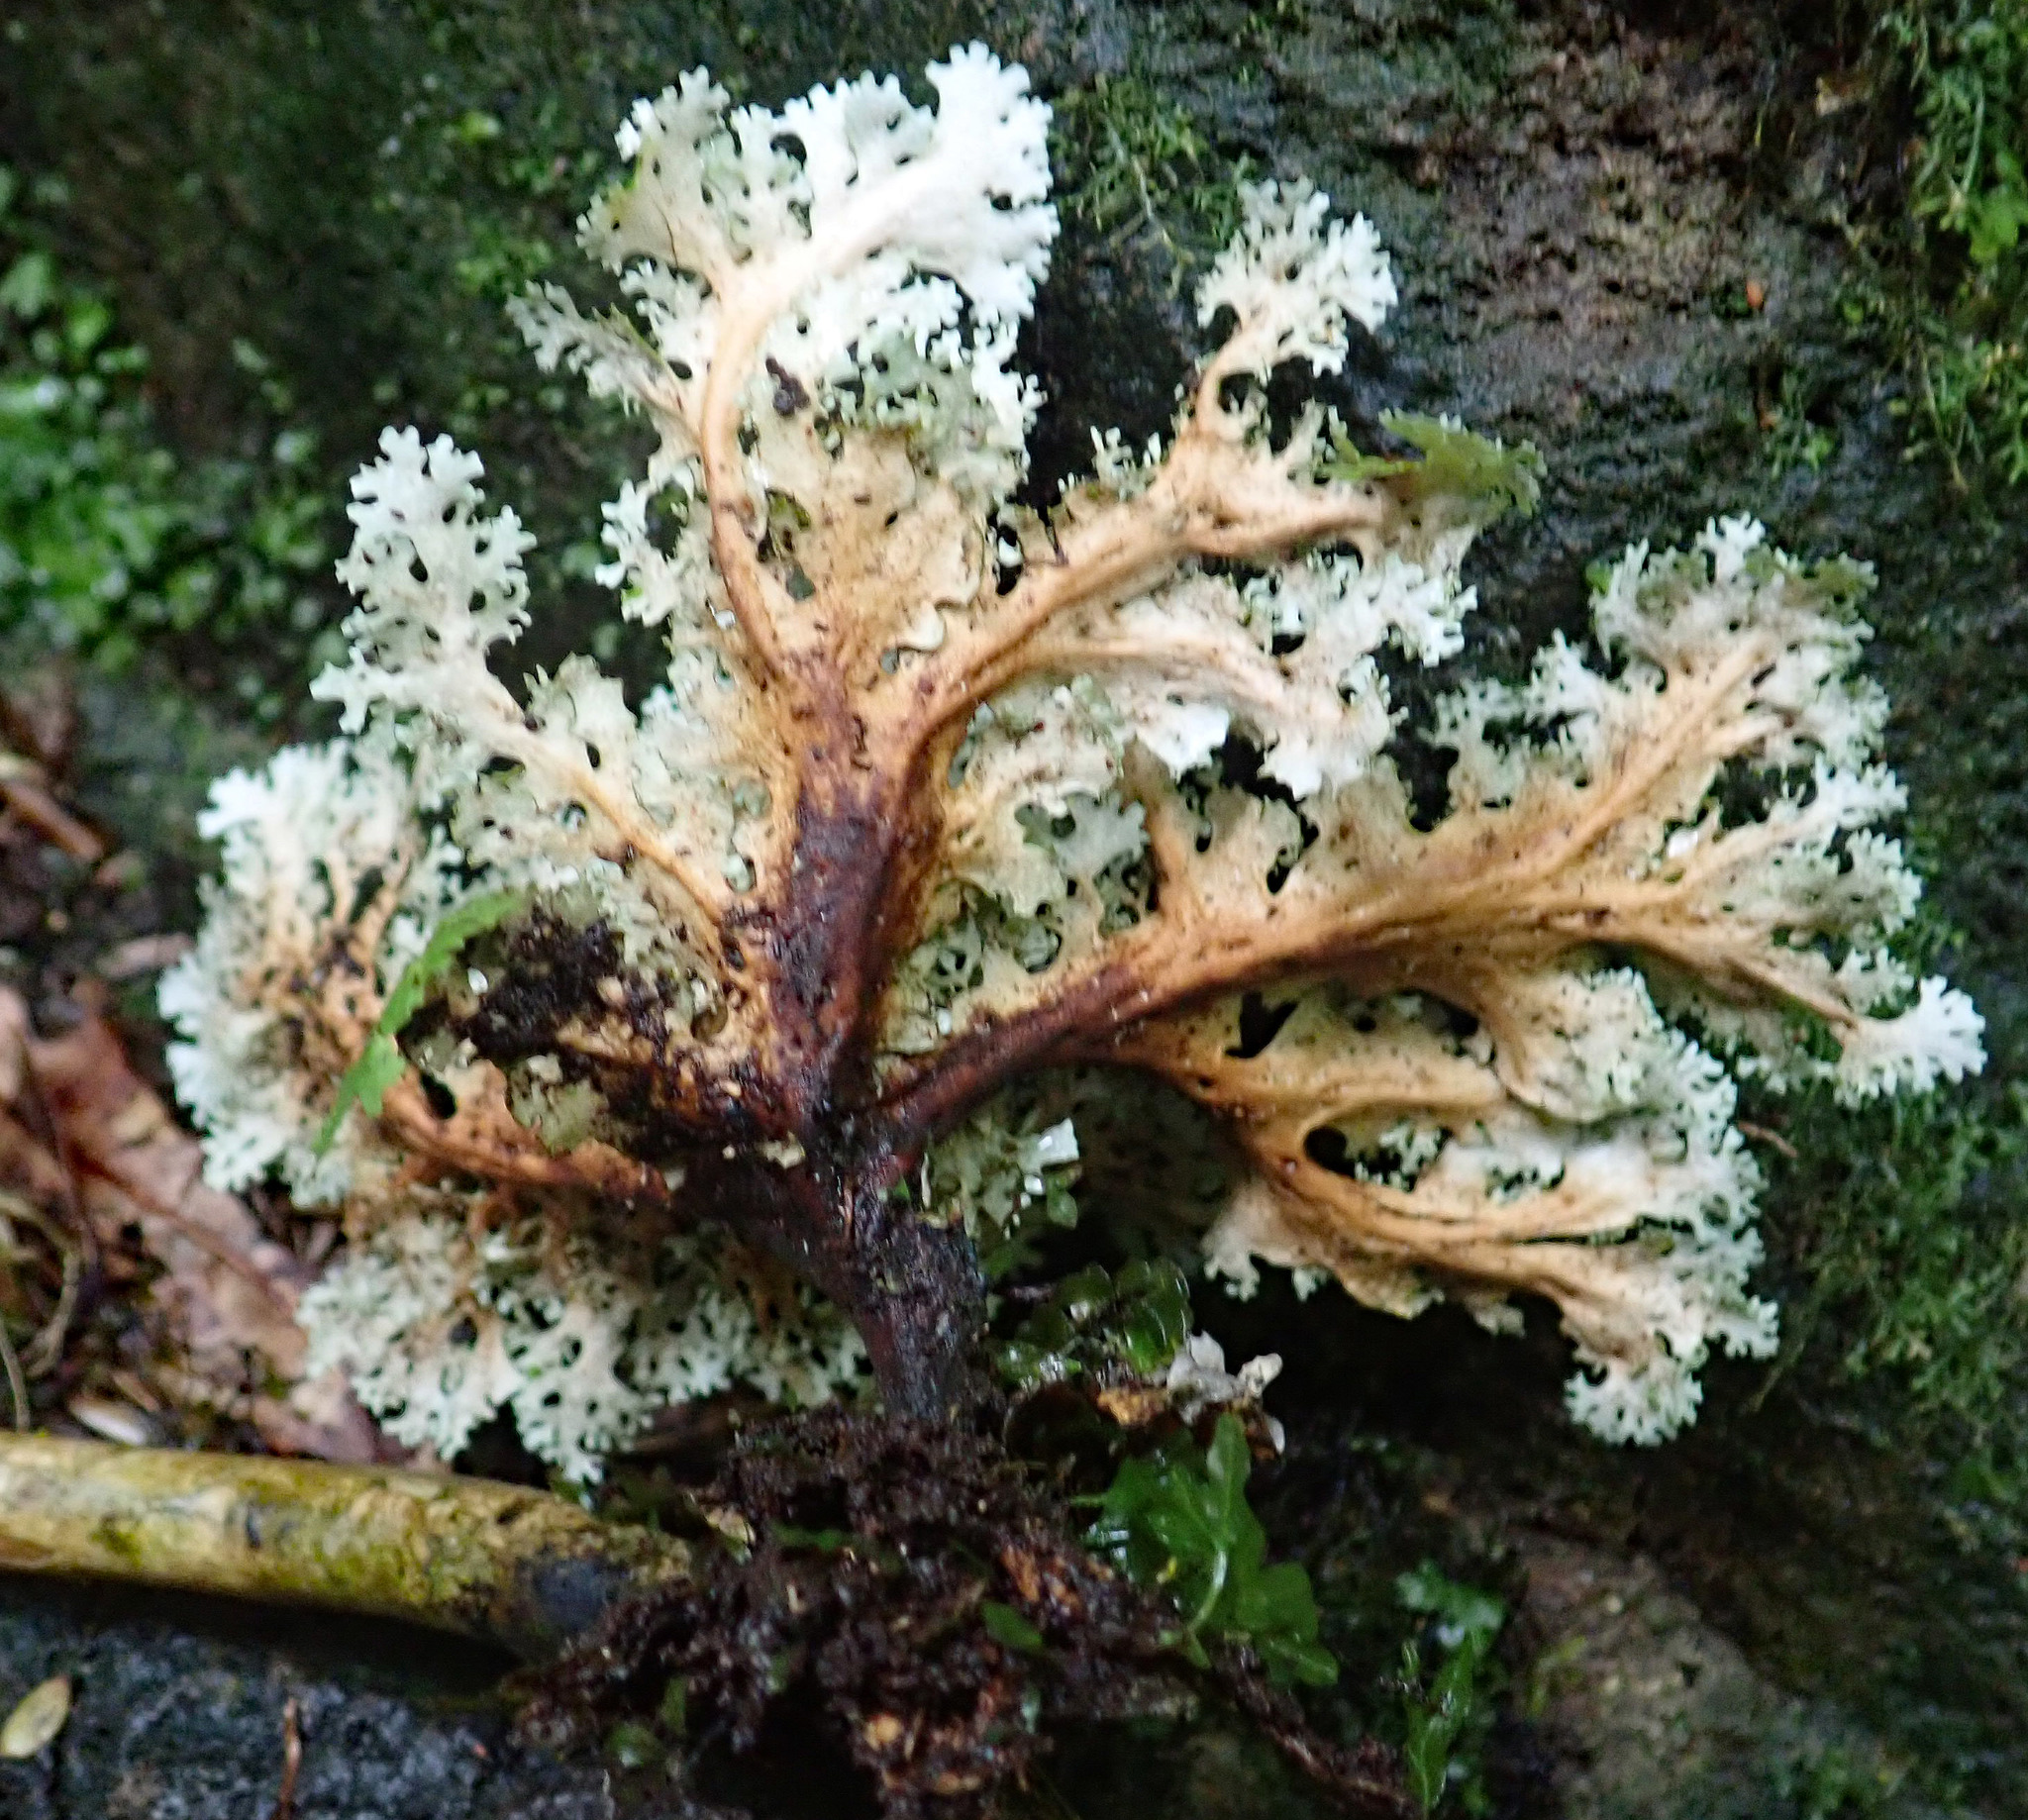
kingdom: Fungi
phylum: Ascomycota
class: Lecanoromycetes
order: Peltigerales
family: Lobariaceae
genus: Sticta
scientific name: Sticta filix
